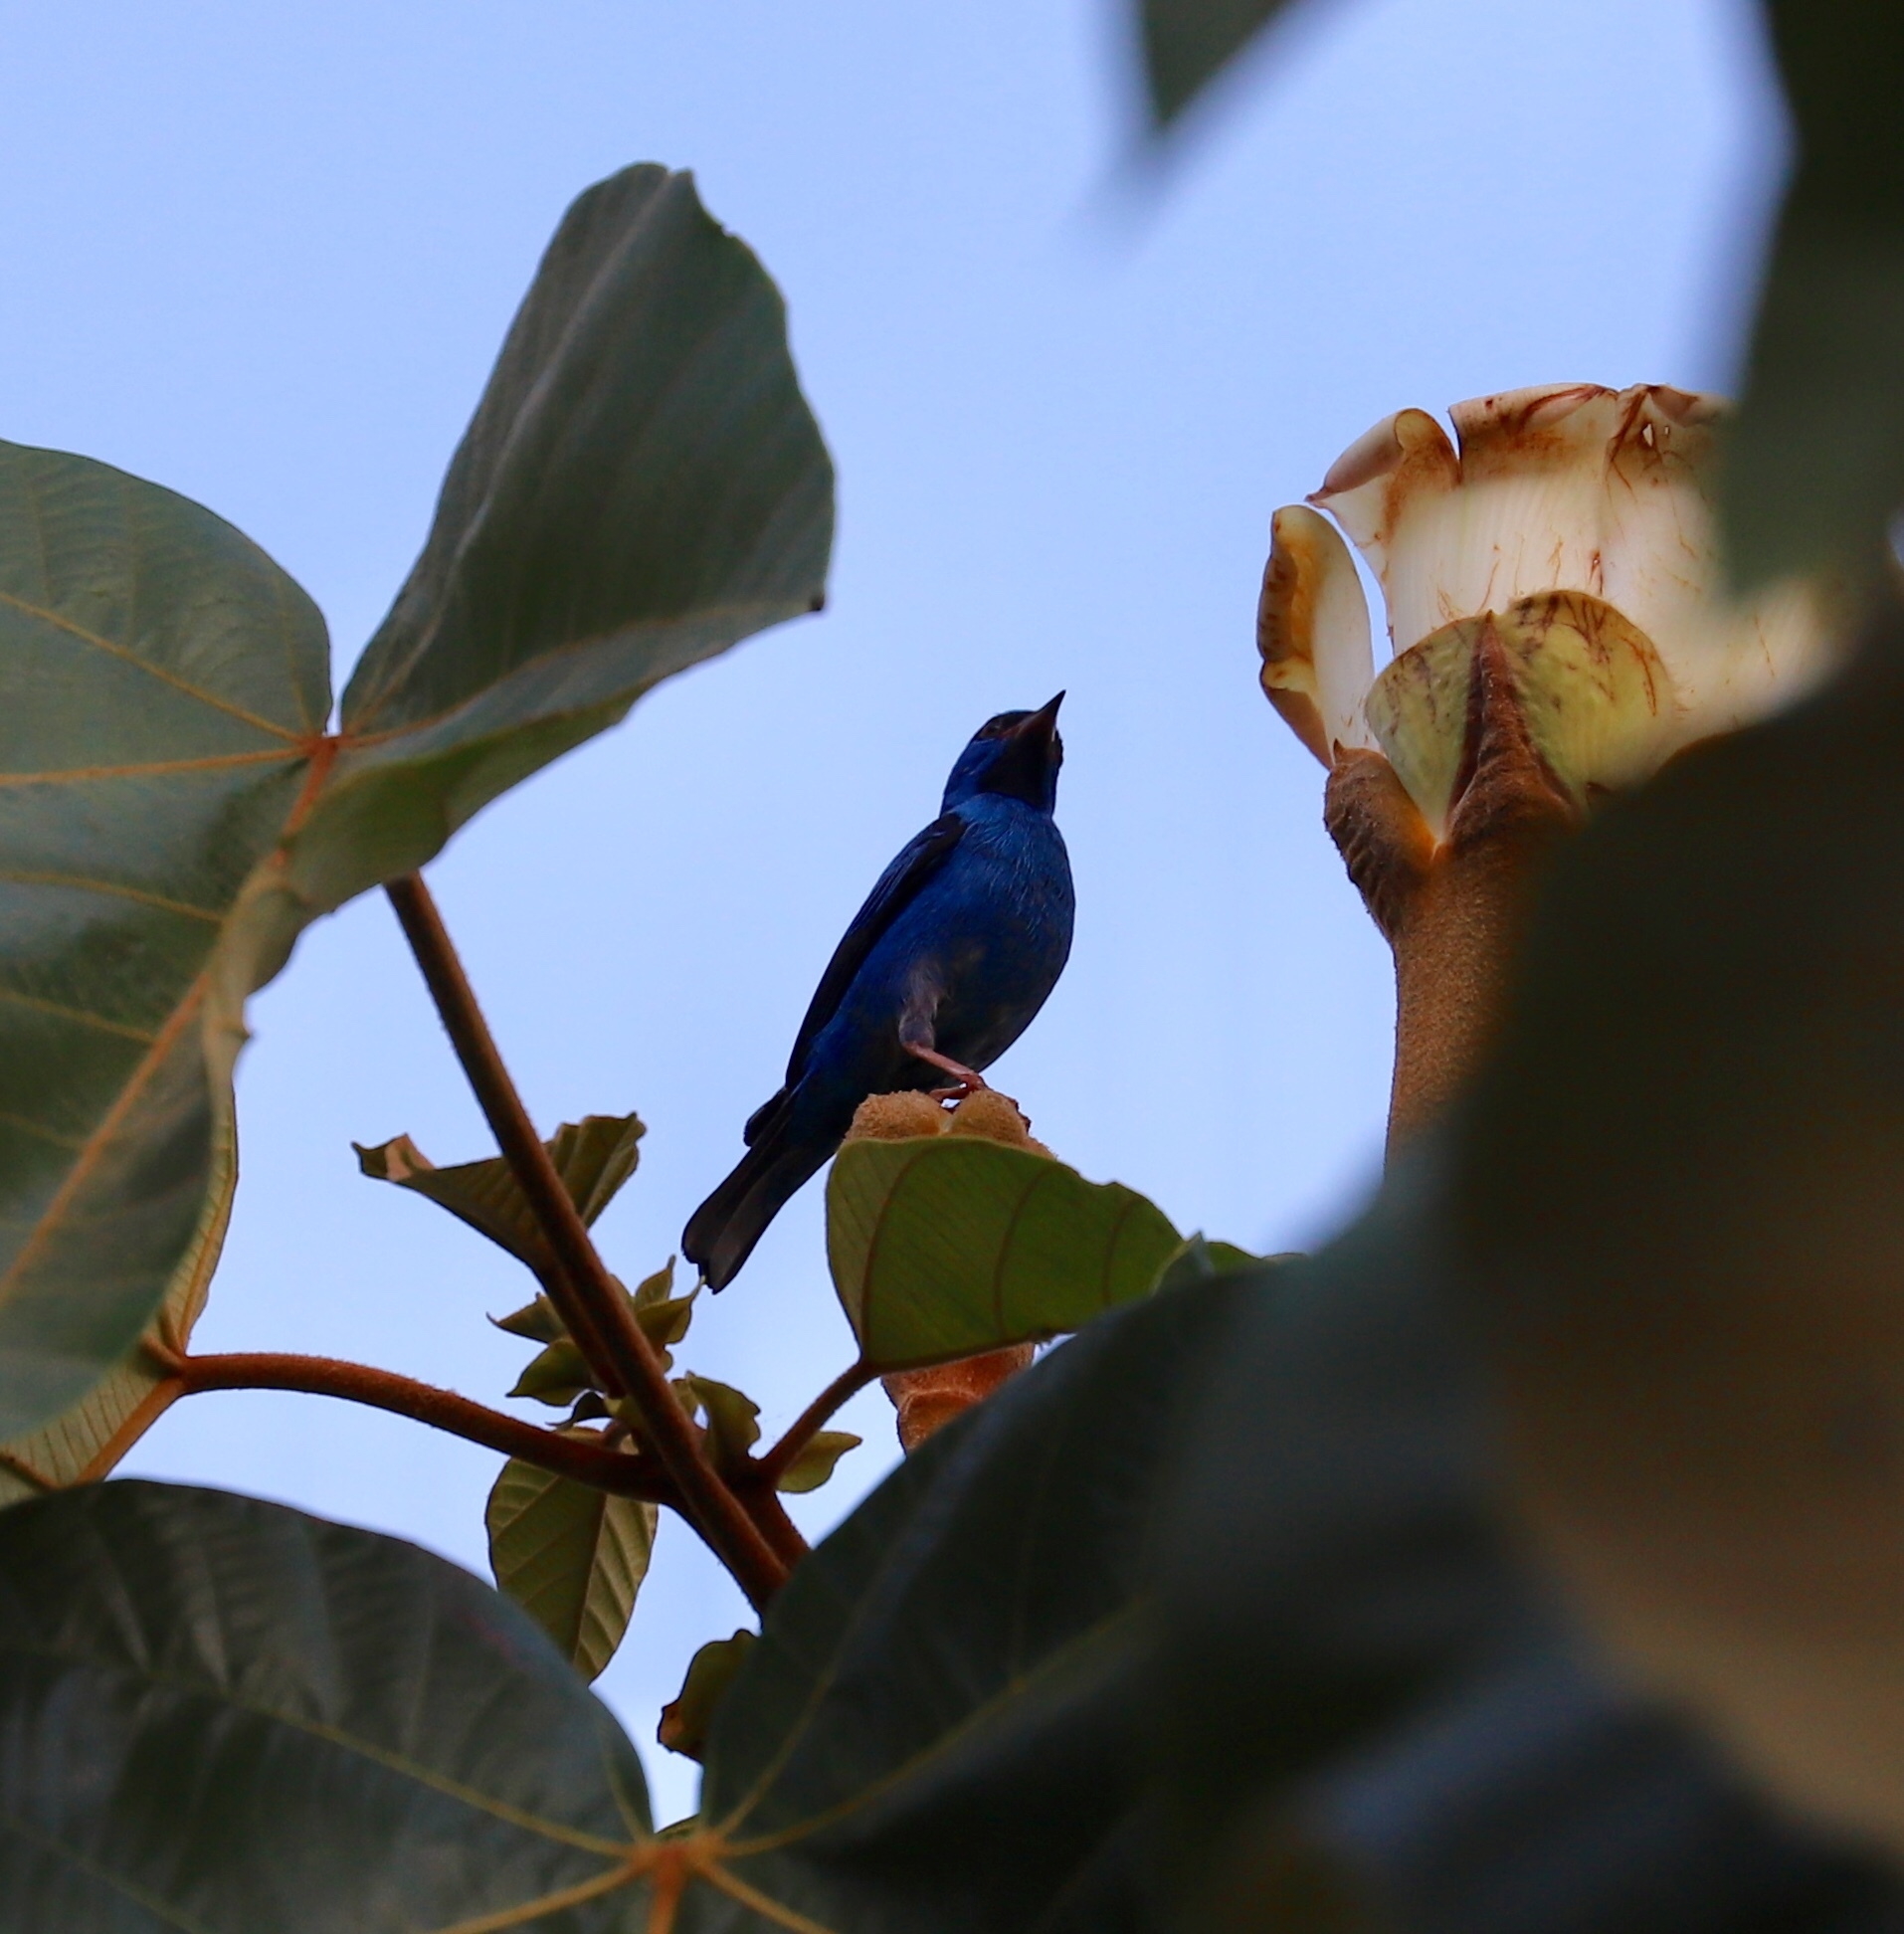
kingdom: Animalia
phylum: Chordata
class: Aves
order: Passeriformes
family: Thraupidae
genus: Dacnis
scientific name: Dacnis cayana
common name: Blue dacnis
